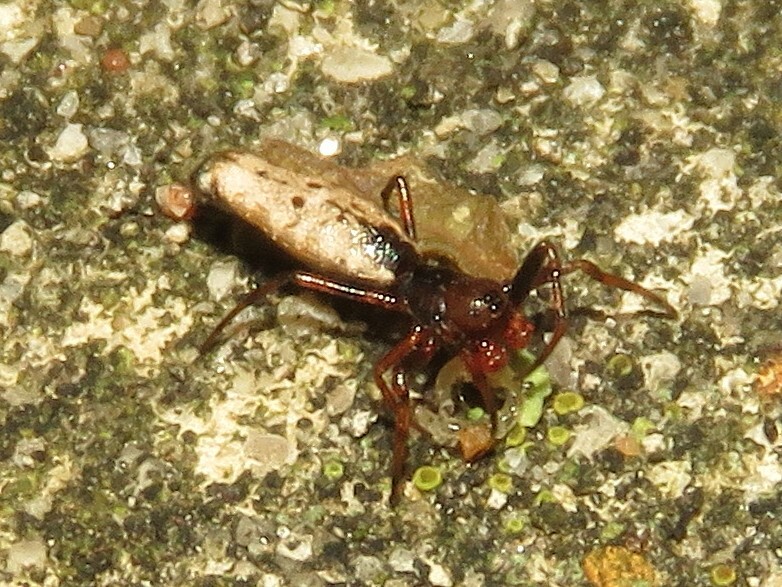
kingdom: Animalia
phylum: Arthropoda
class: Arachnida
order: Araneae
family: Araneidae
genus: Micrathena
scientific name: Micrathena gracilis
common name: Orb weavers
